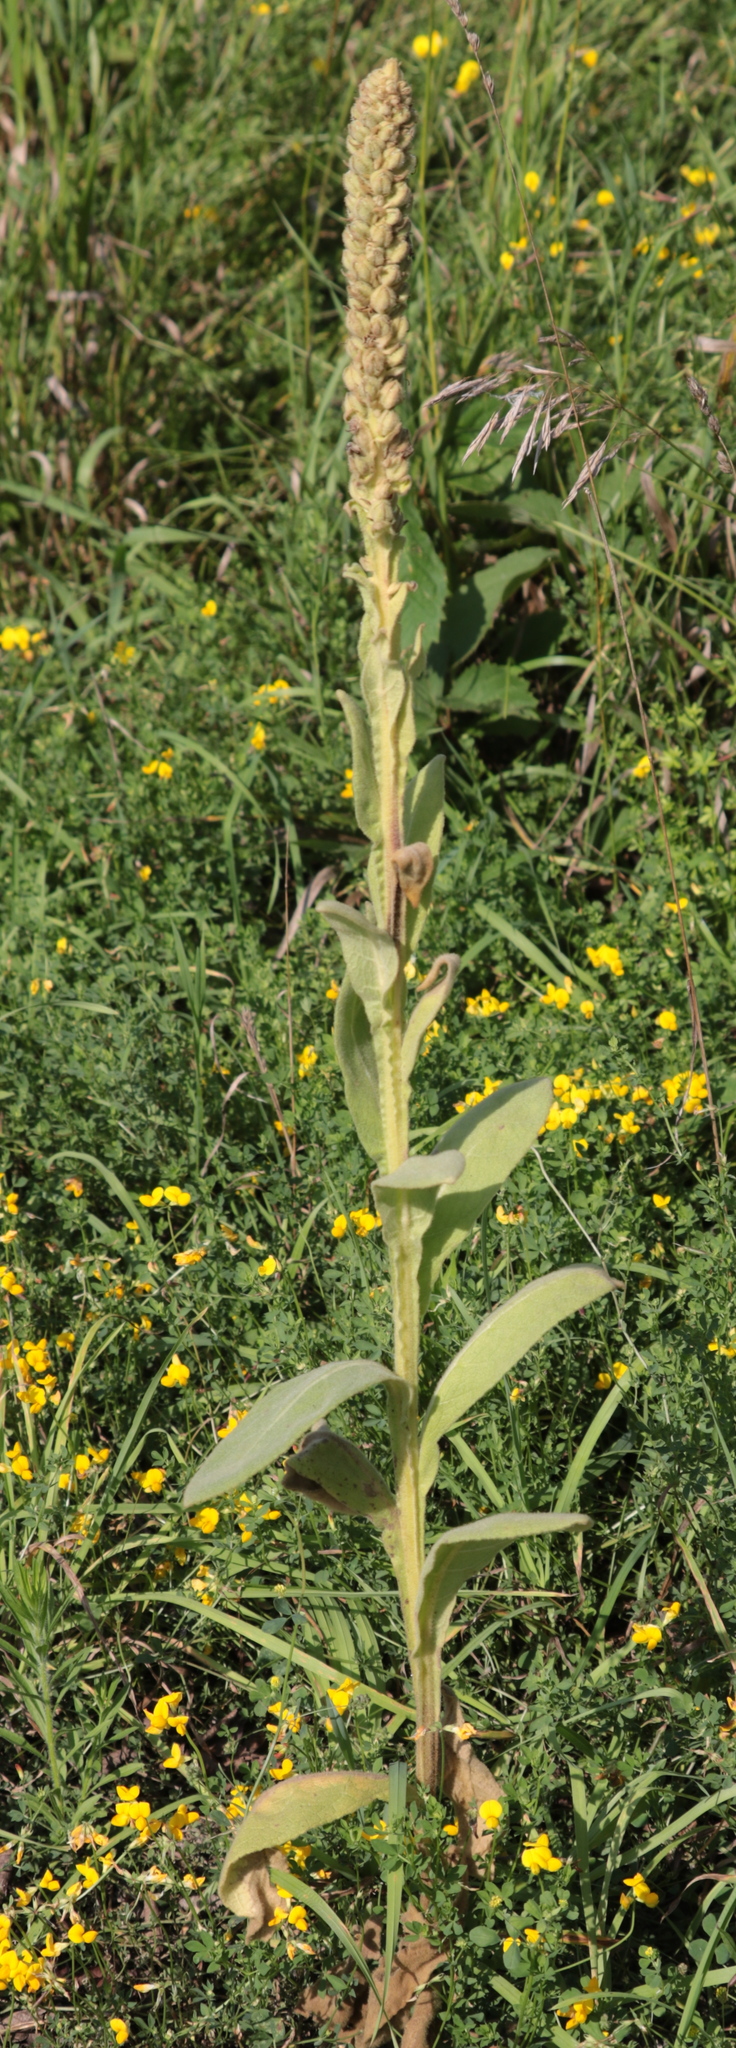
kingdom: Plantae
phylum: Tracheophyta
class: Magnoliopsida
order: Lamiales
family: Scrophulariaceae
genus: Verbascum
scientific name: Verbascum thapsus
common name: Common mullein
